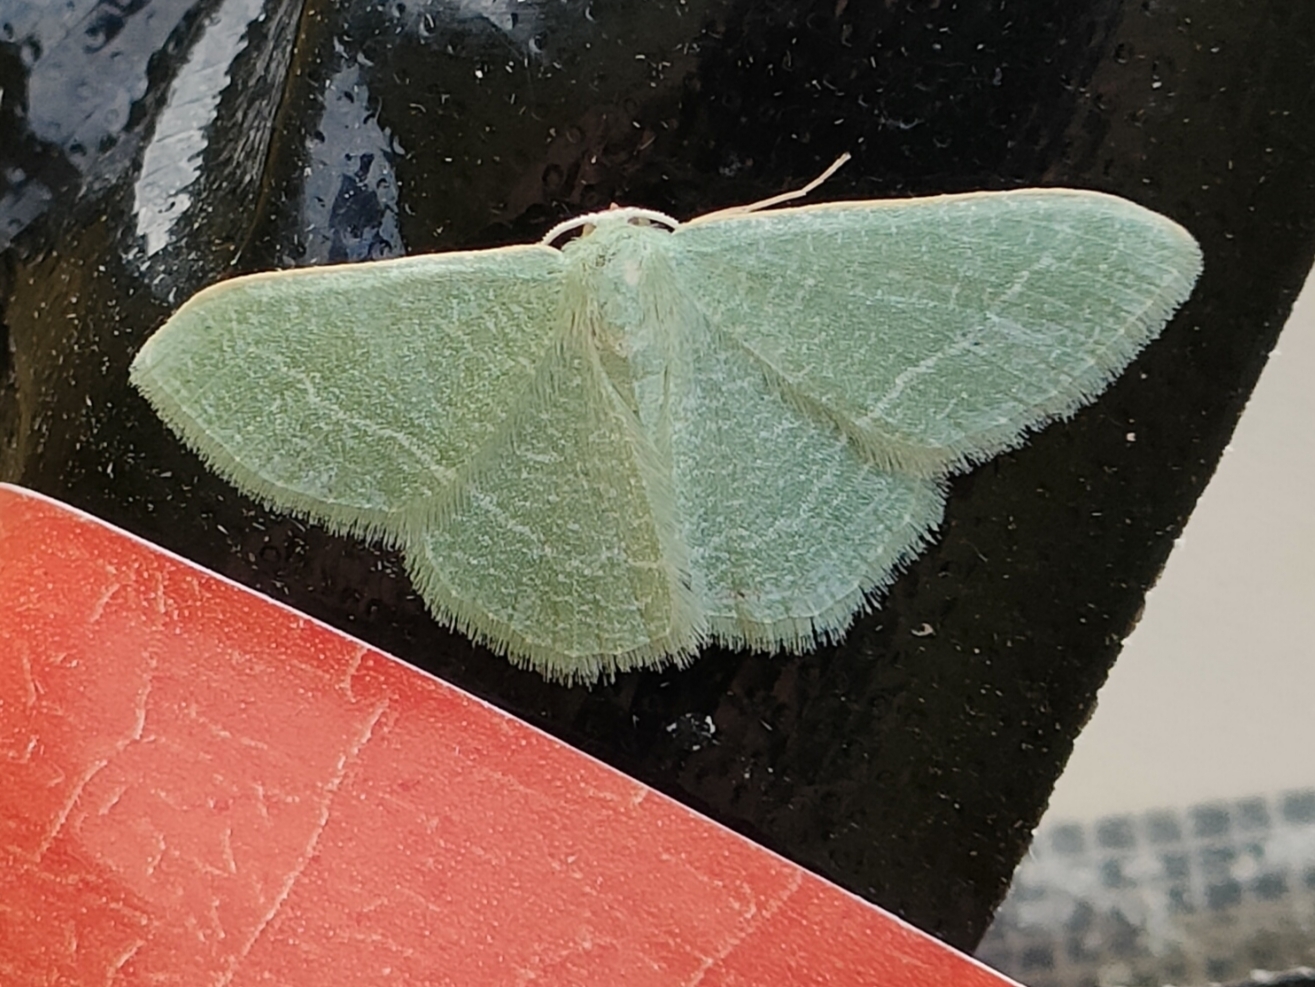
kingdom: Animalia
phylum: Arthropoda
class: Insecta
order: Lepidoptera
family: Geometridae
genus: Chlorissa
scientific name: Chlorissa etruscaria
